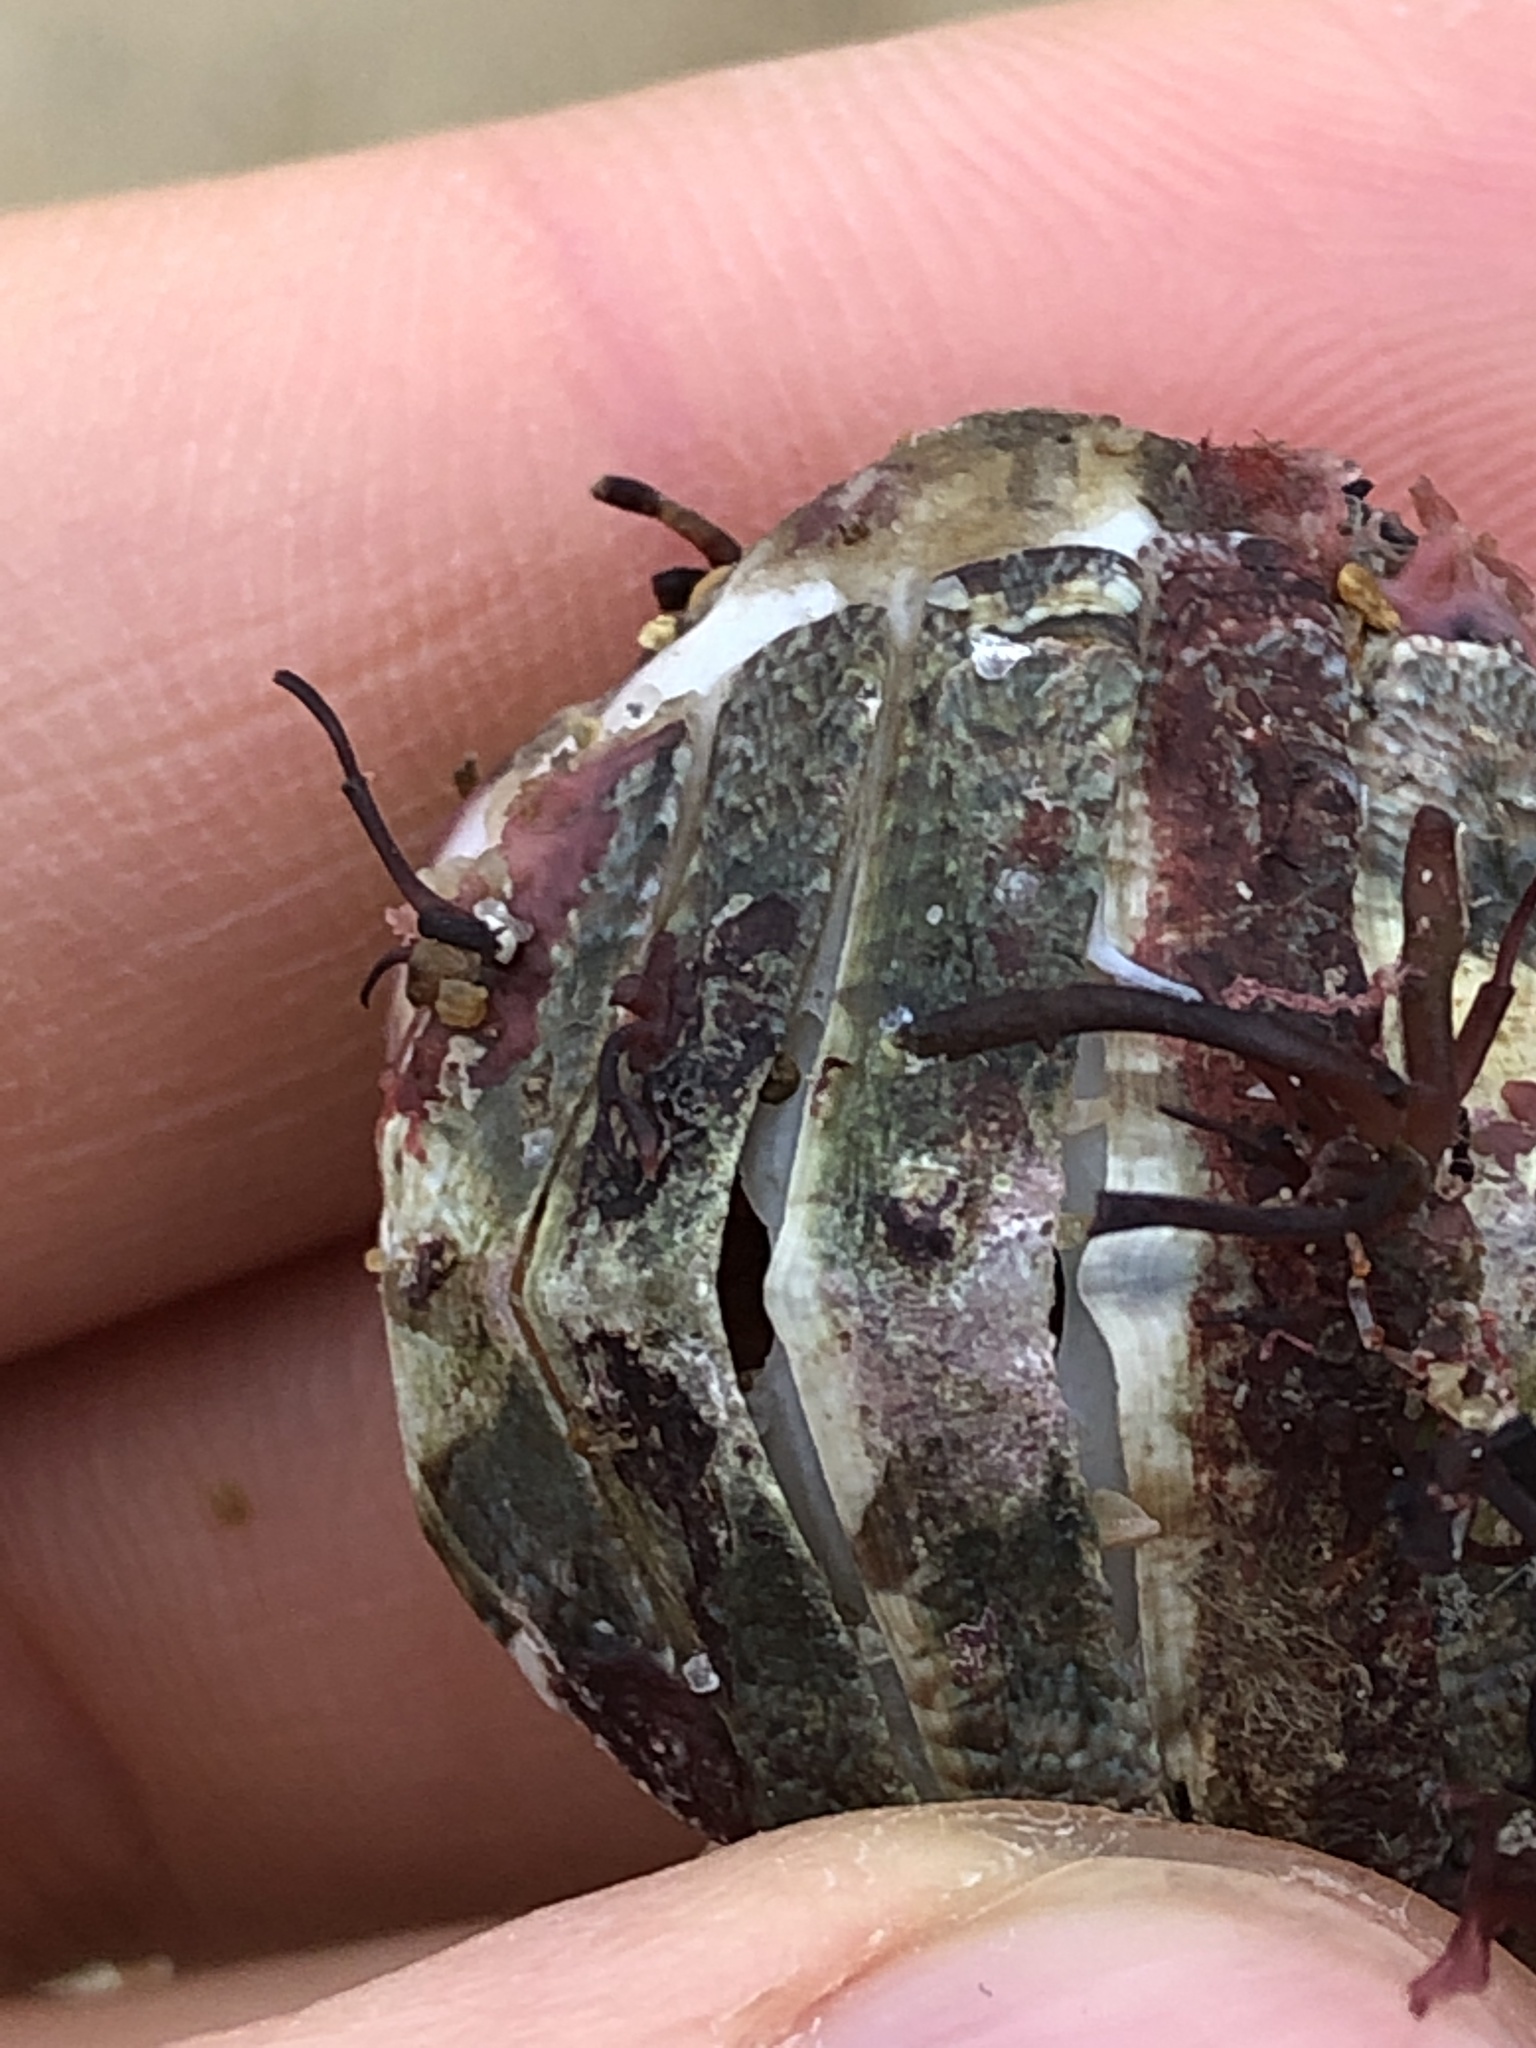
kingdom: Animalia
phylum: Mollusca
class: Polyplacophora
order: Chitonida
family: Mopaliidae
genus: Placiphorella
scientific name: Placiphorella stimpsoni
